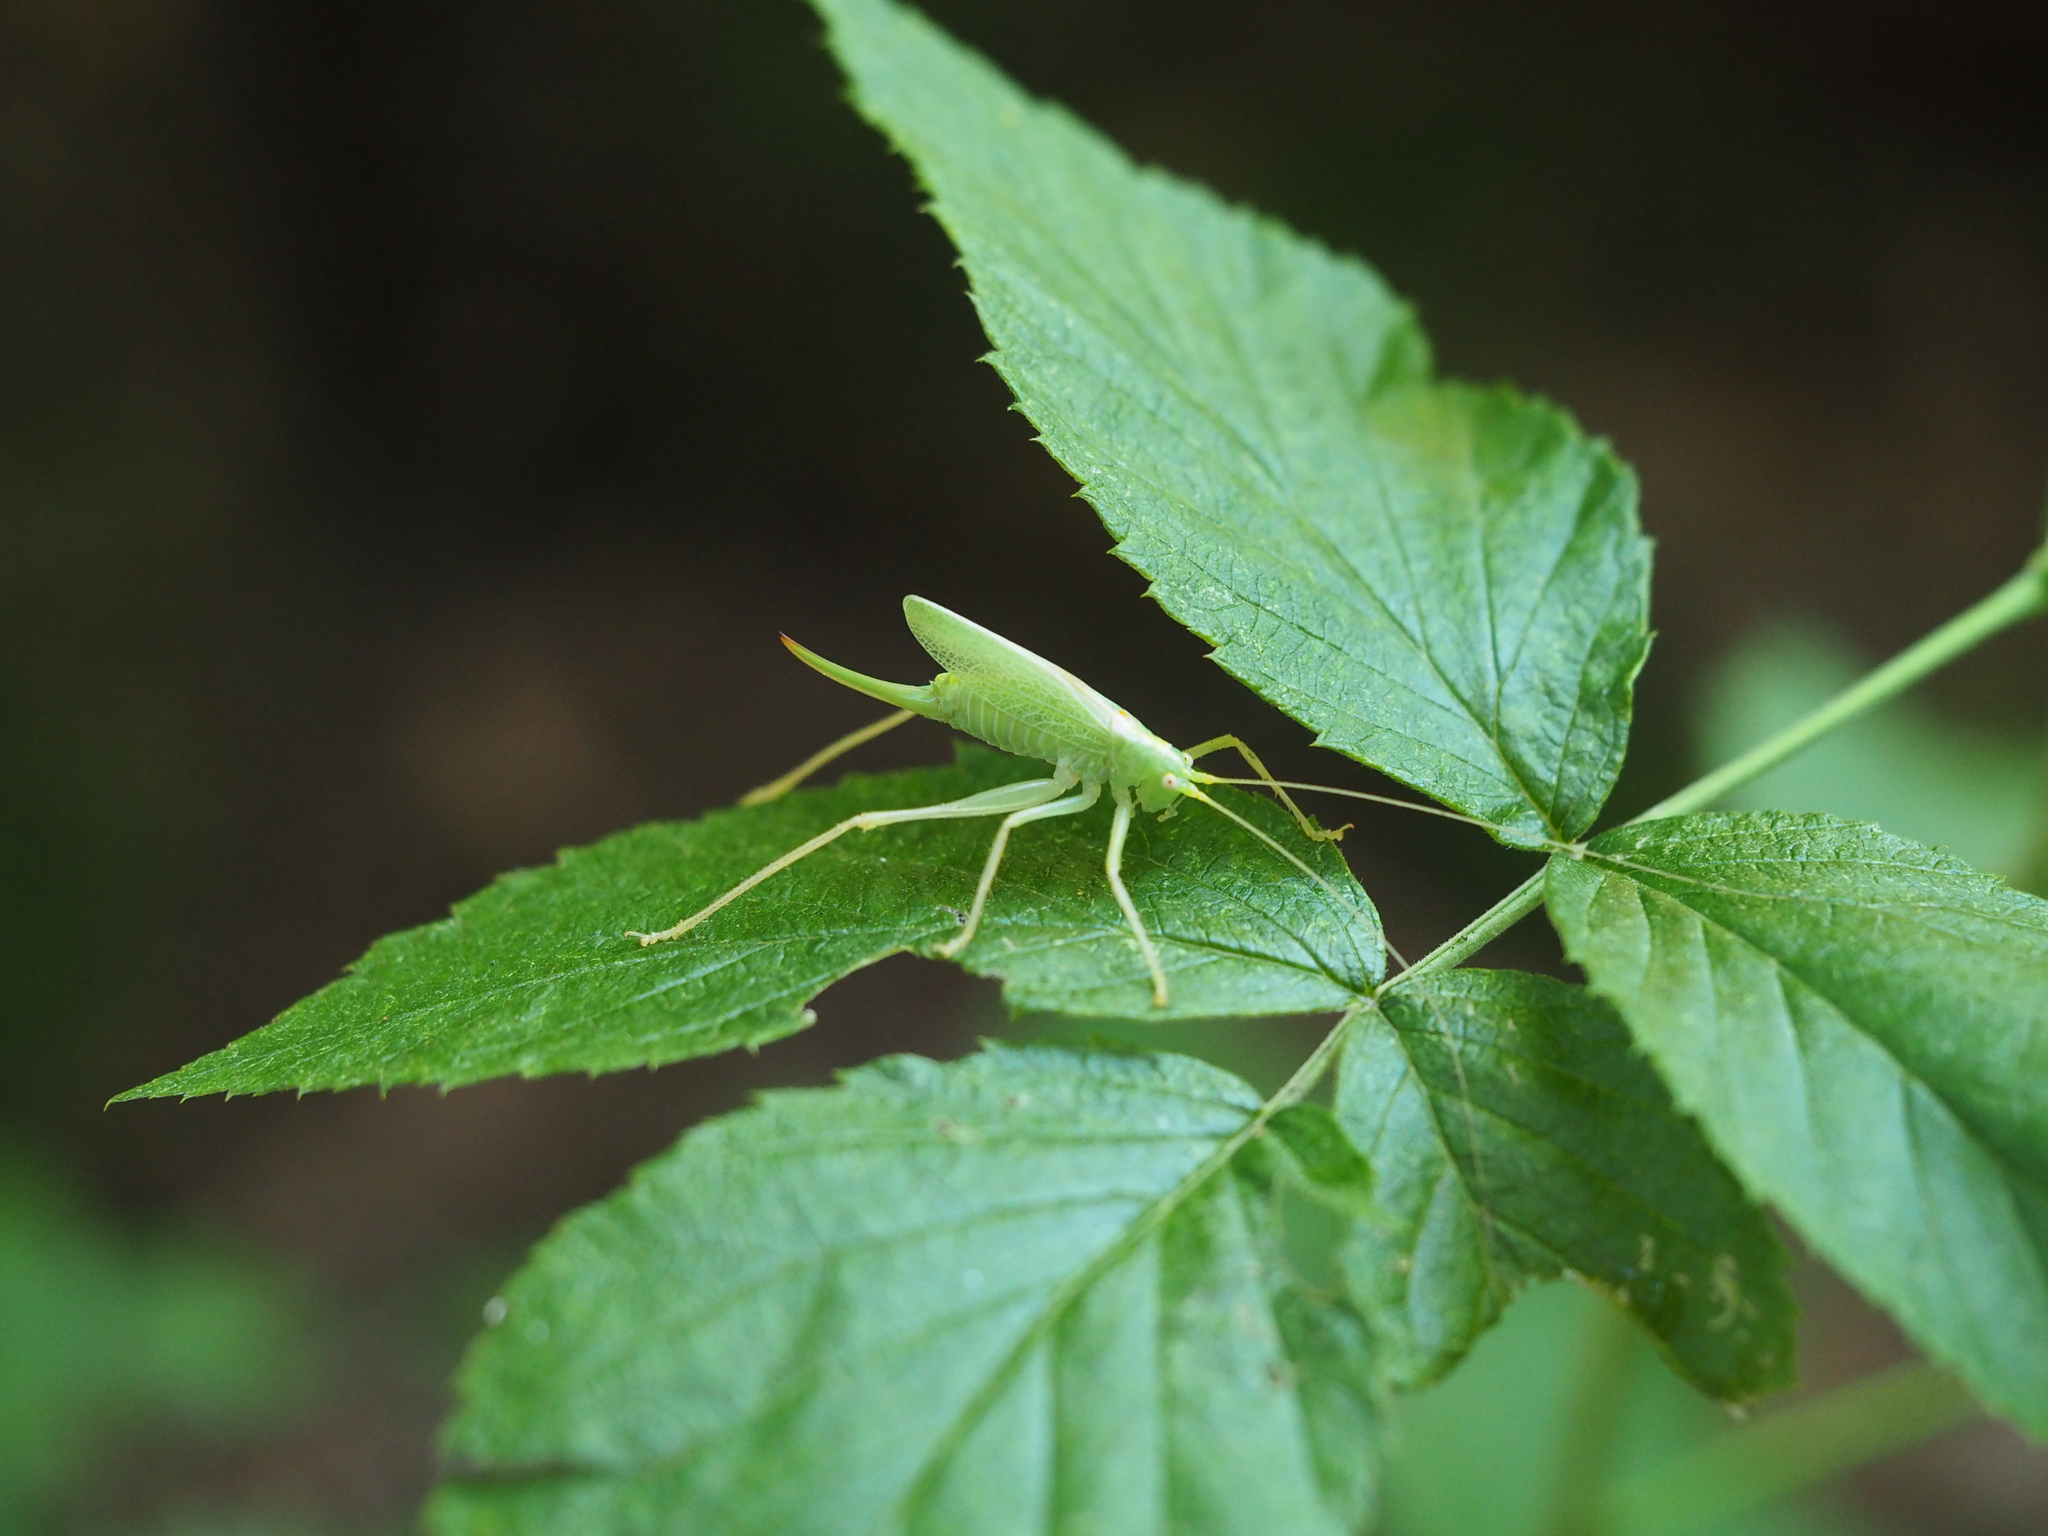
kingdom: Animalia
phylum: Arthropoda
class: Insecta
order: Orthoptera
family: Tettigoniidae
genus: Meconema
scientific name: Meconema thalassinum
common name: Oak bush-cricket
